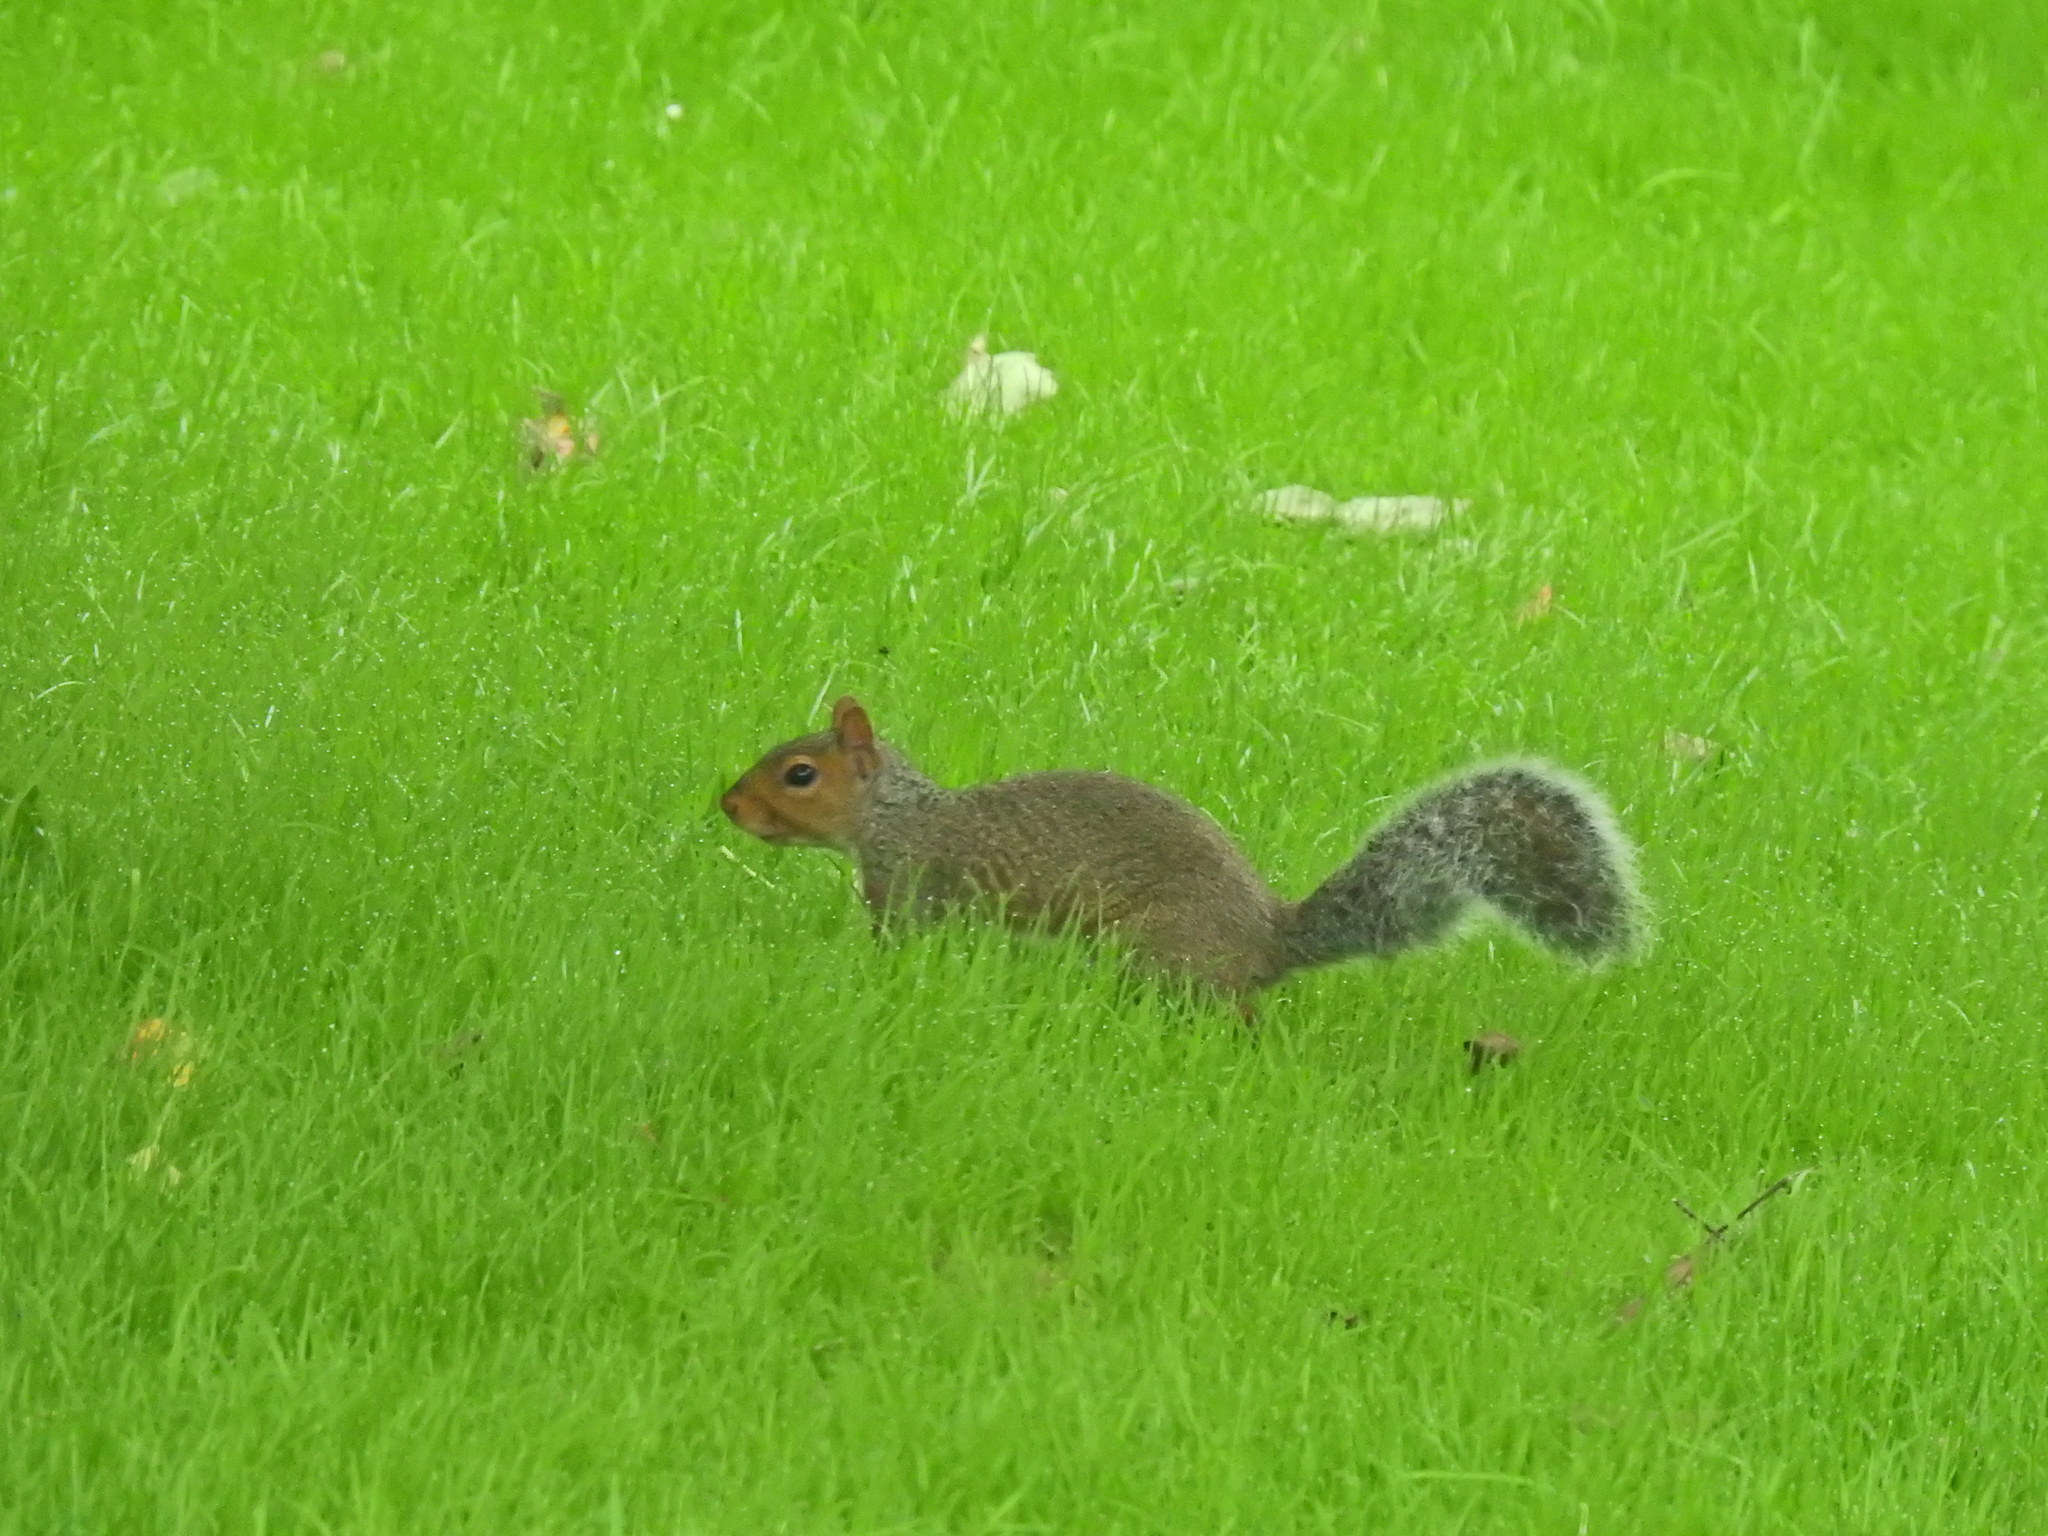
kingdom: Animalia
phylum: Chordata
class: Mammalia
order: Rodentia
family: Sciuridae
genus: Sciurus
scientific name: Sciurus carolinensis
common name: Eastern gray squirrel
